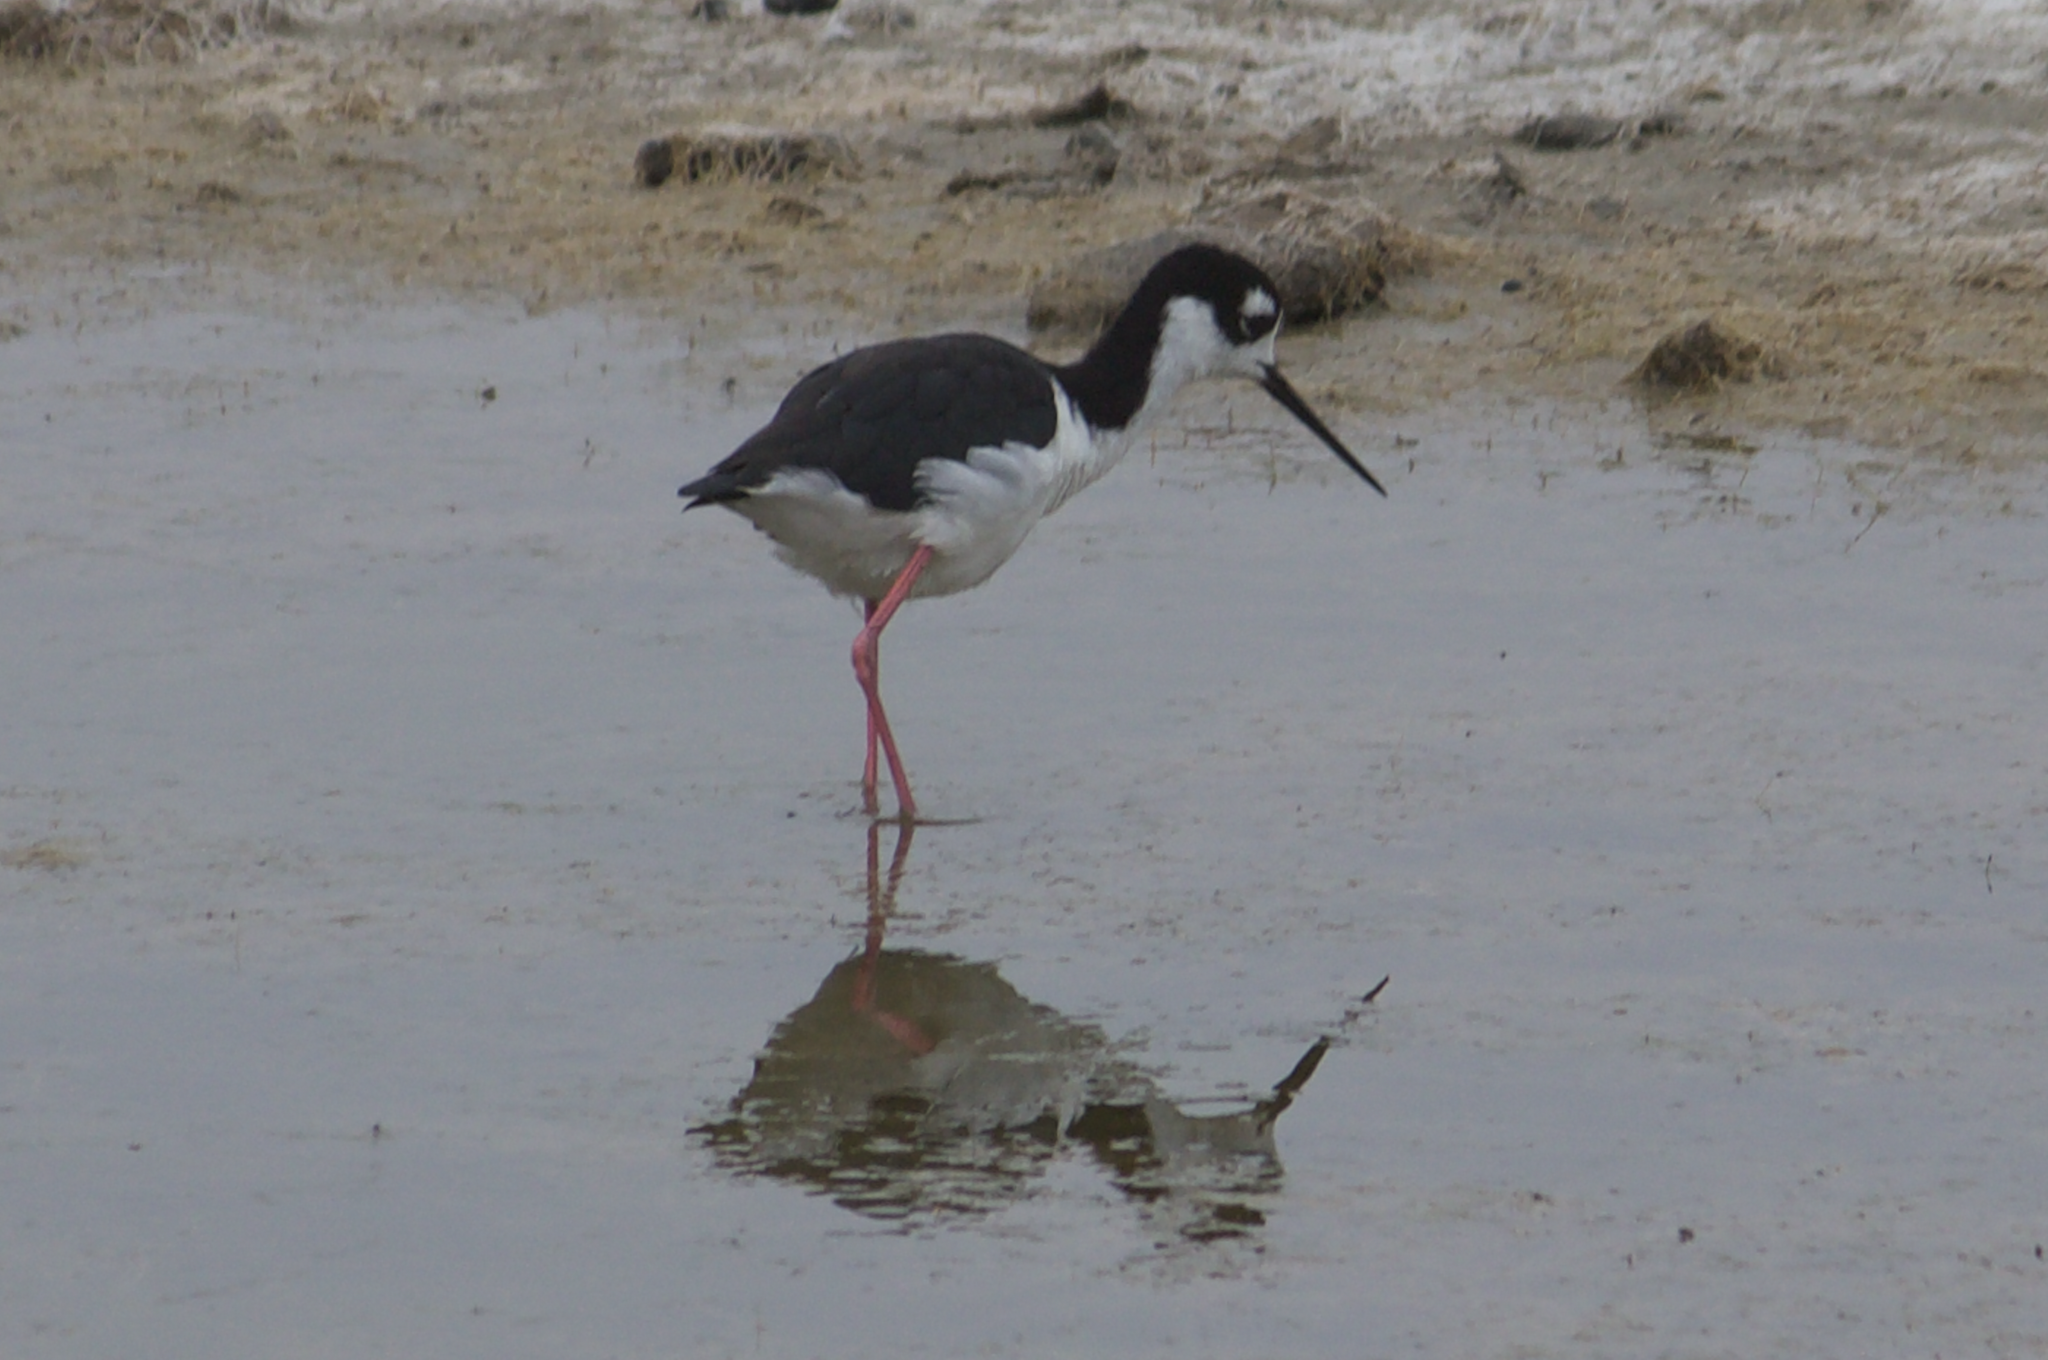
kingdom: Animalia
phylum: Chordata
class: Aves
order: Charadriiformes
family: Recurvirostridae
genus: Himantopus
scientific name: Himantopus mexicanus
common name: Black-necked stilt
